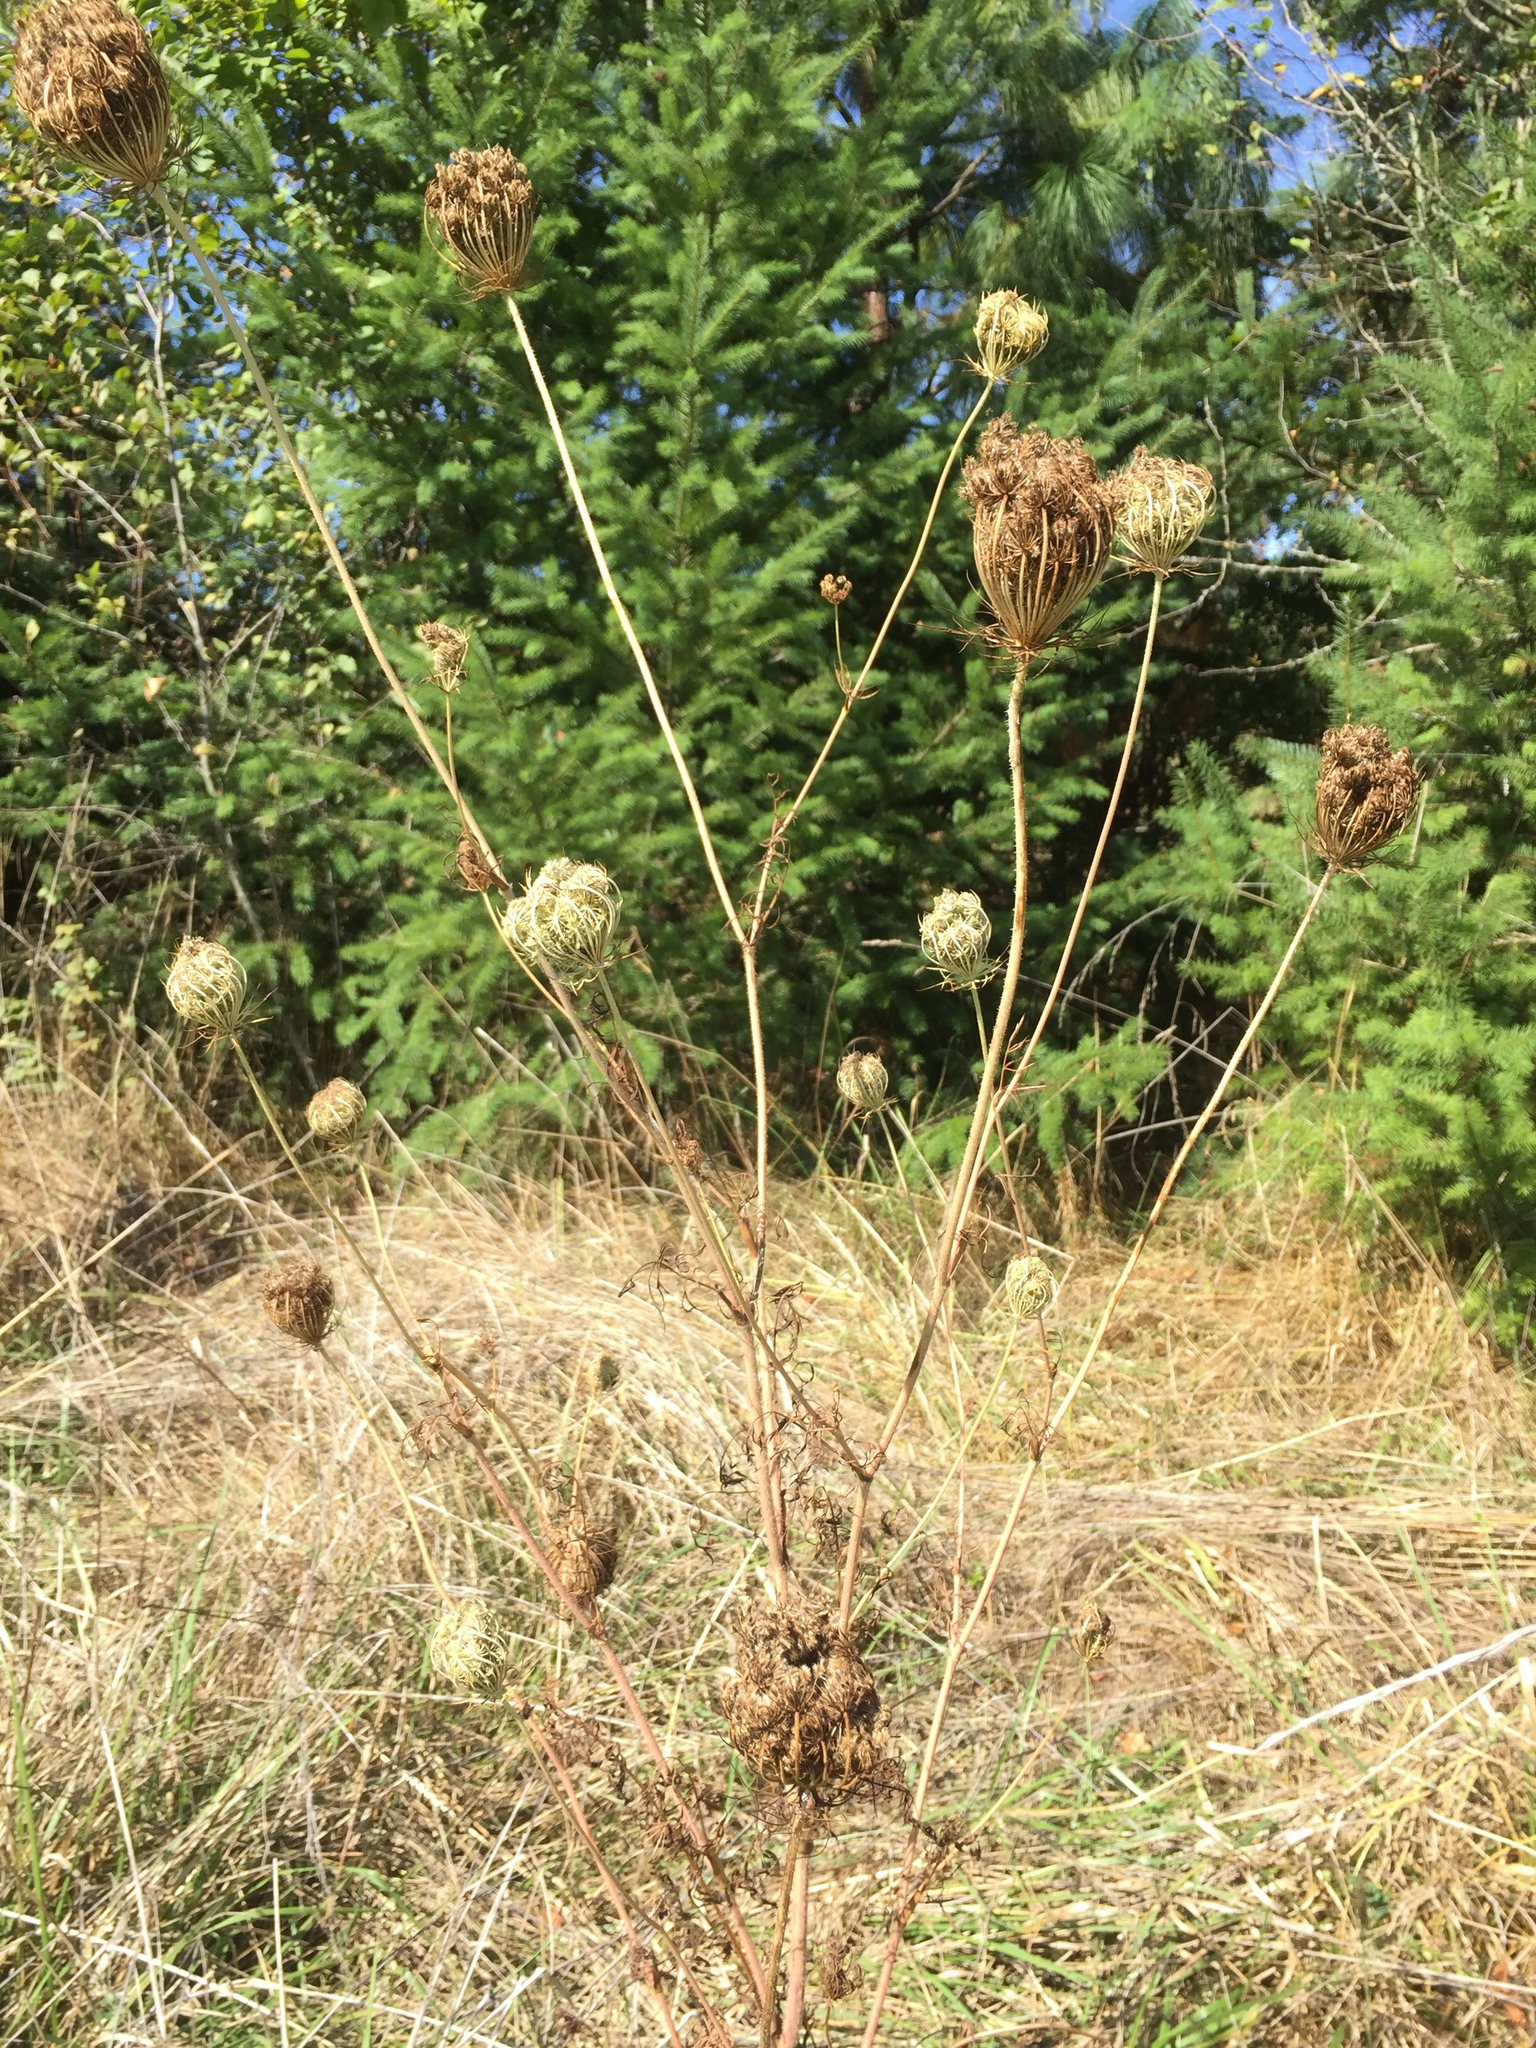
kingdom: Plantae
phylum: Tracheophyta
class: Magnoliopsida
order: Apiales
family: Apiaceae
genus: Daucus
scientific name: Daucus carota
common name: Wild carrot
